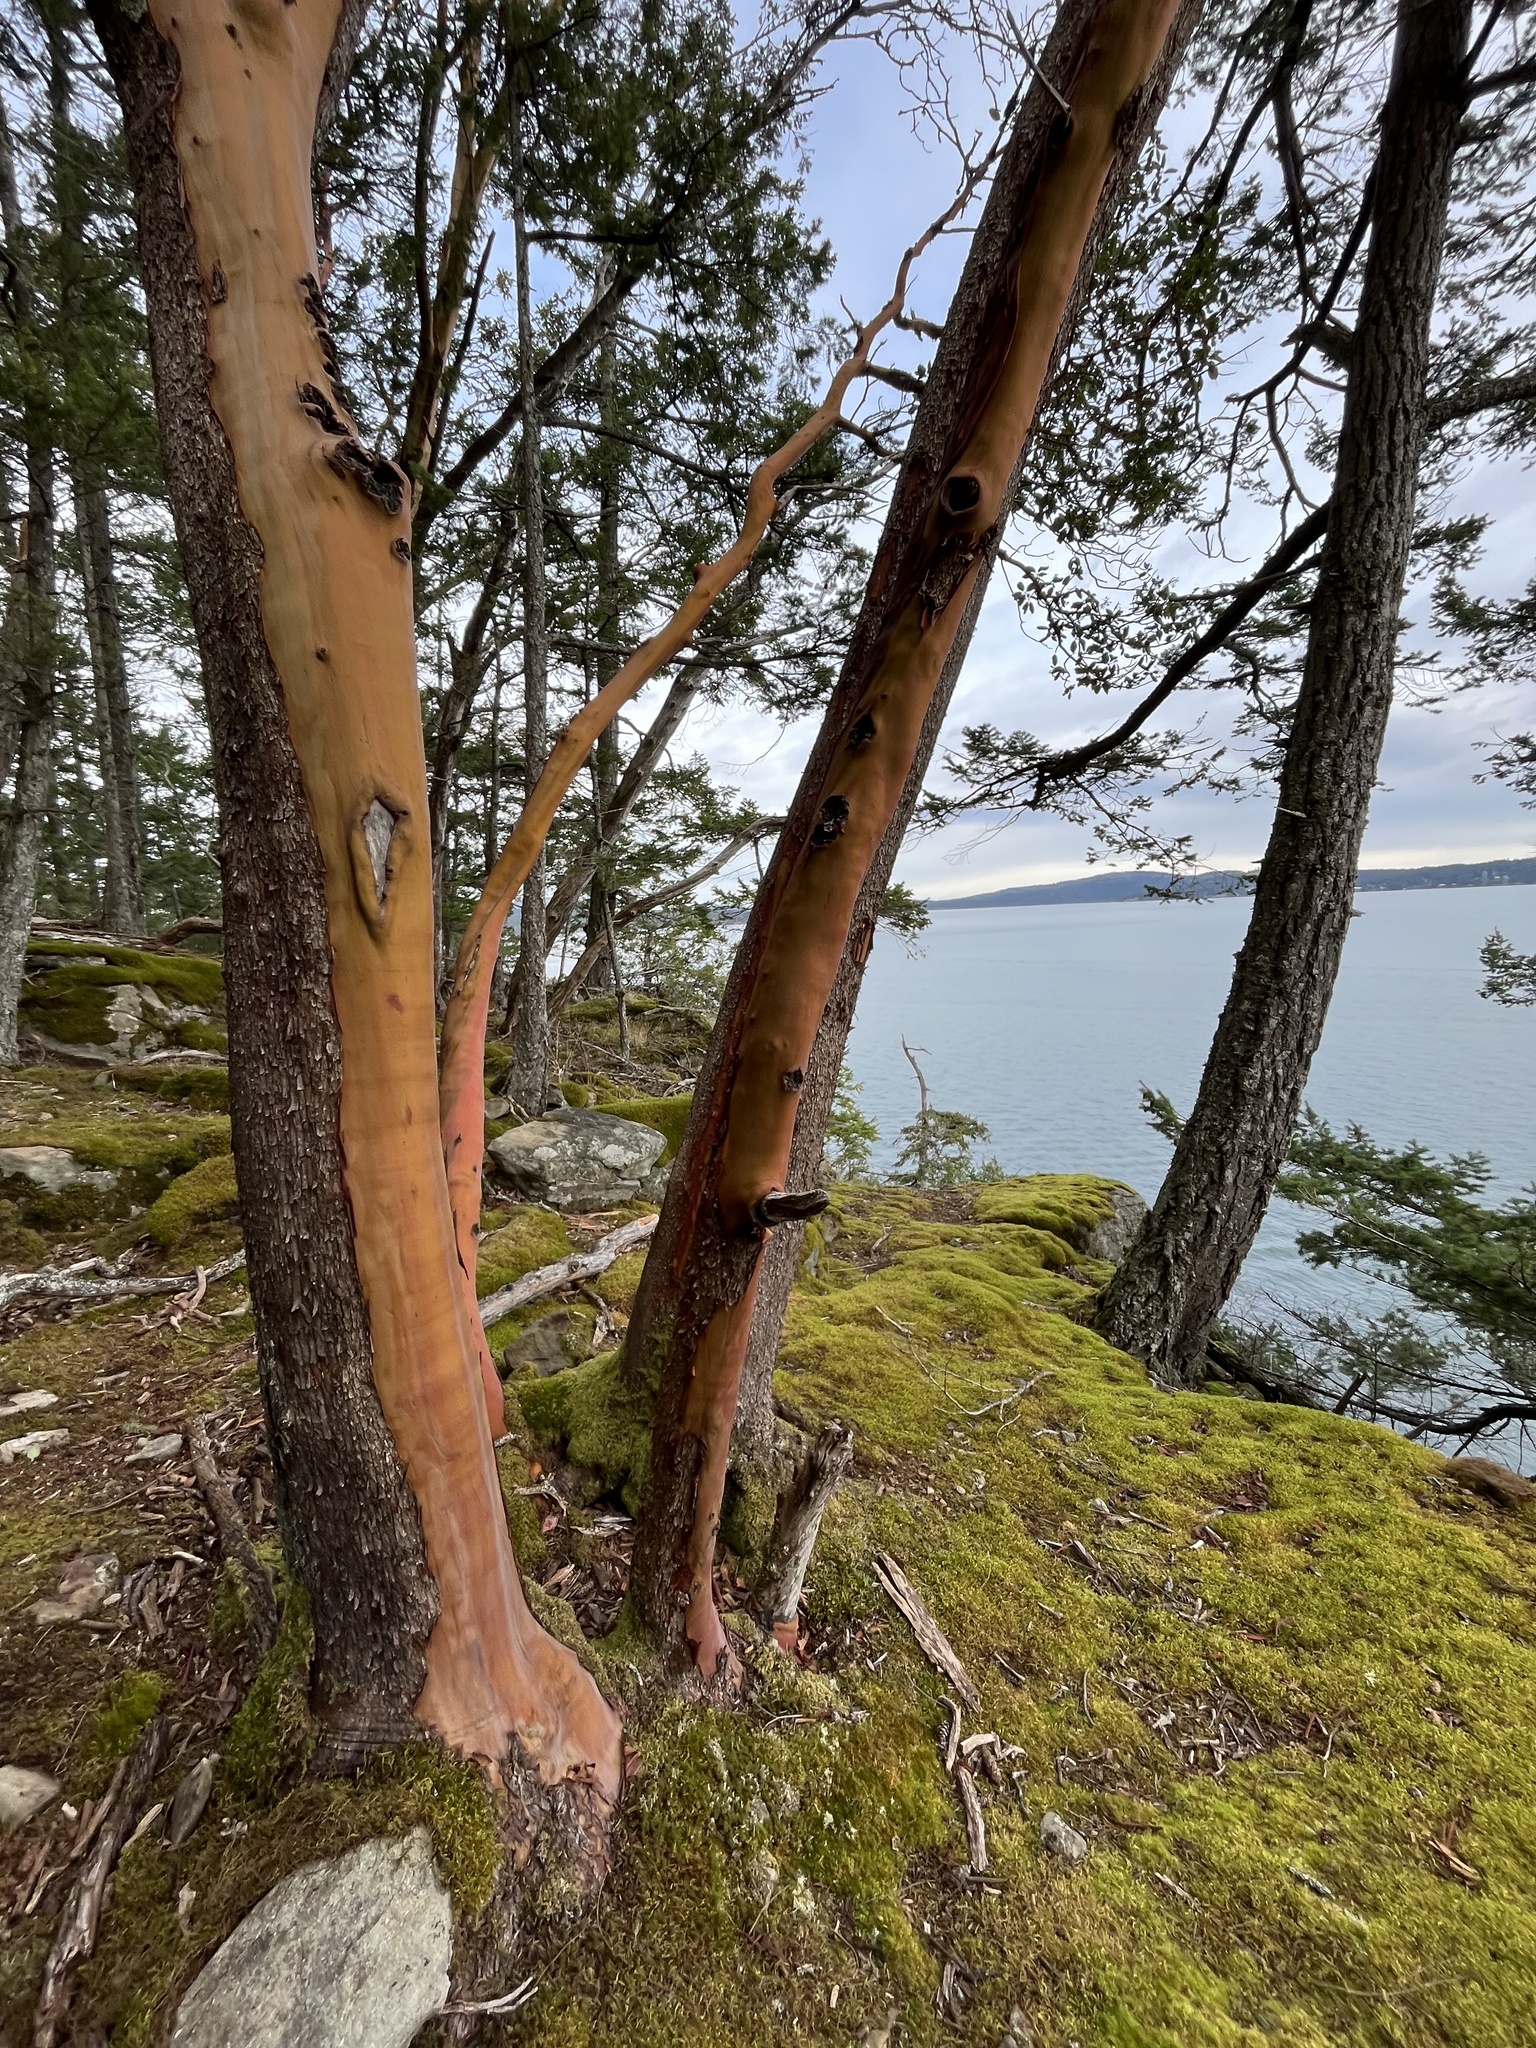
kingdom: Plantae
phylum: Tracheophyta
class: Magnoliopsida
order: Ericales
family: Ericaceae
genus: Arbutus
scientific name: Arbutus menziesii
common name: Pacific madrone
